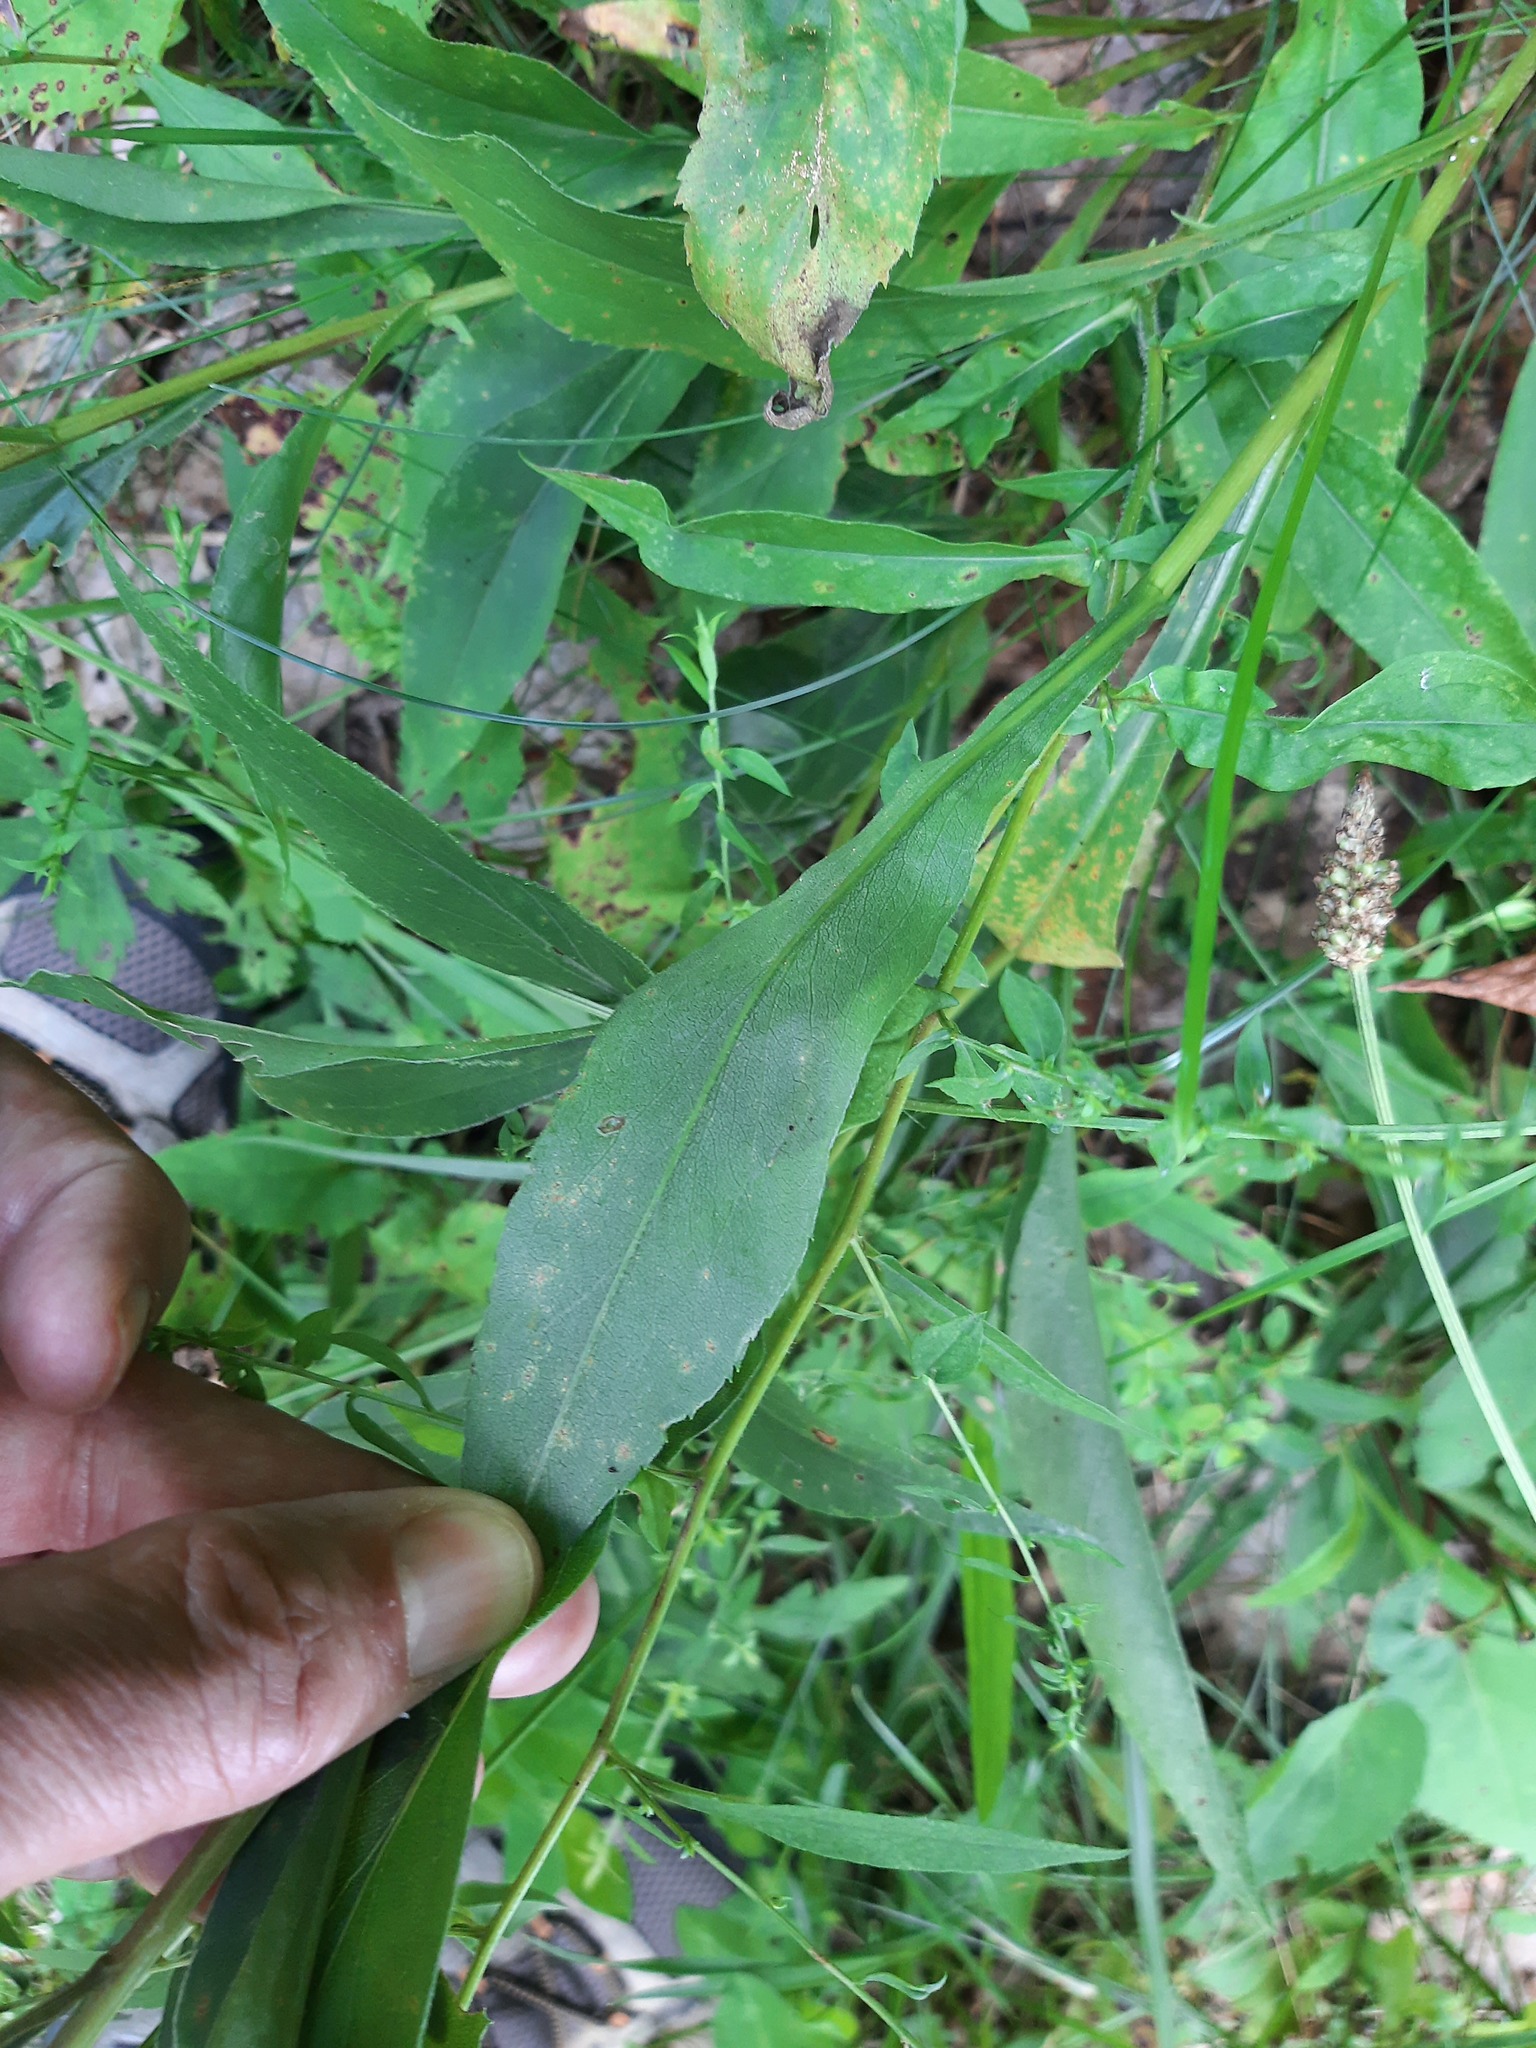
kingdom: Plantae
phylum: Tracheophyta
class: Magnoliopsida
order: Asterales
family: Asteraceae
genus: Solidago
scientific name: Solidago juncea
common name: Early goldenrod
